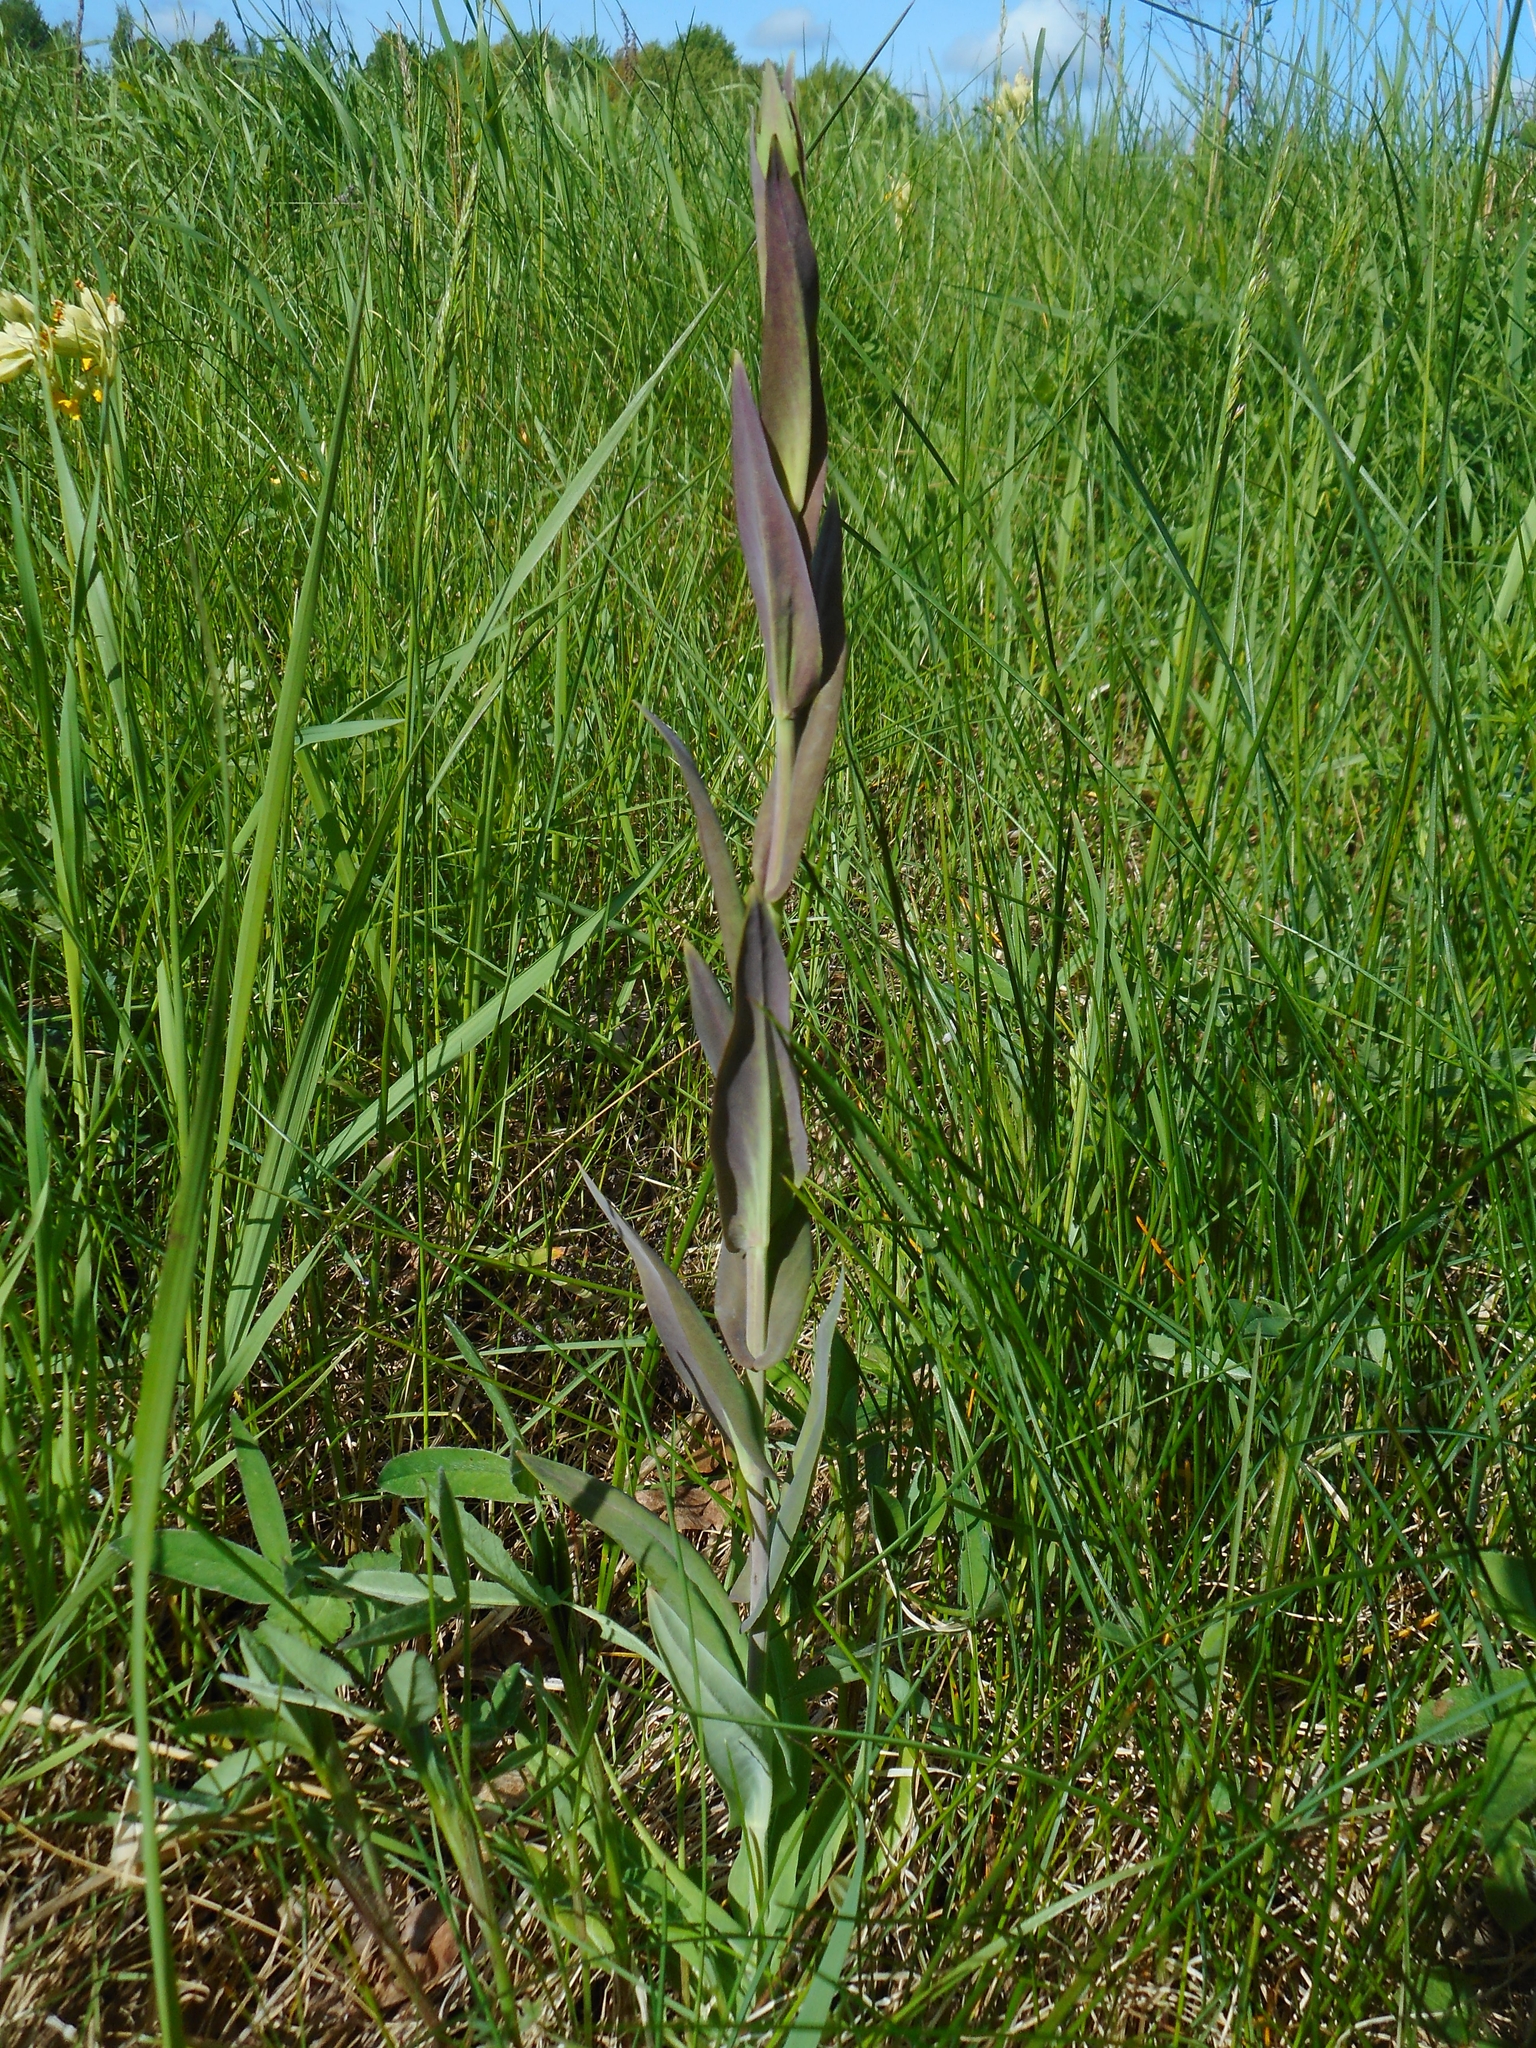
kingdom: Plantae
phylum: Tracheophyta
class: Magnoliopsida
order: Brassicales
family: Brassicaceae
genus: Turritis
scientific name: Turritis glabra
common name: Tower rockcress
